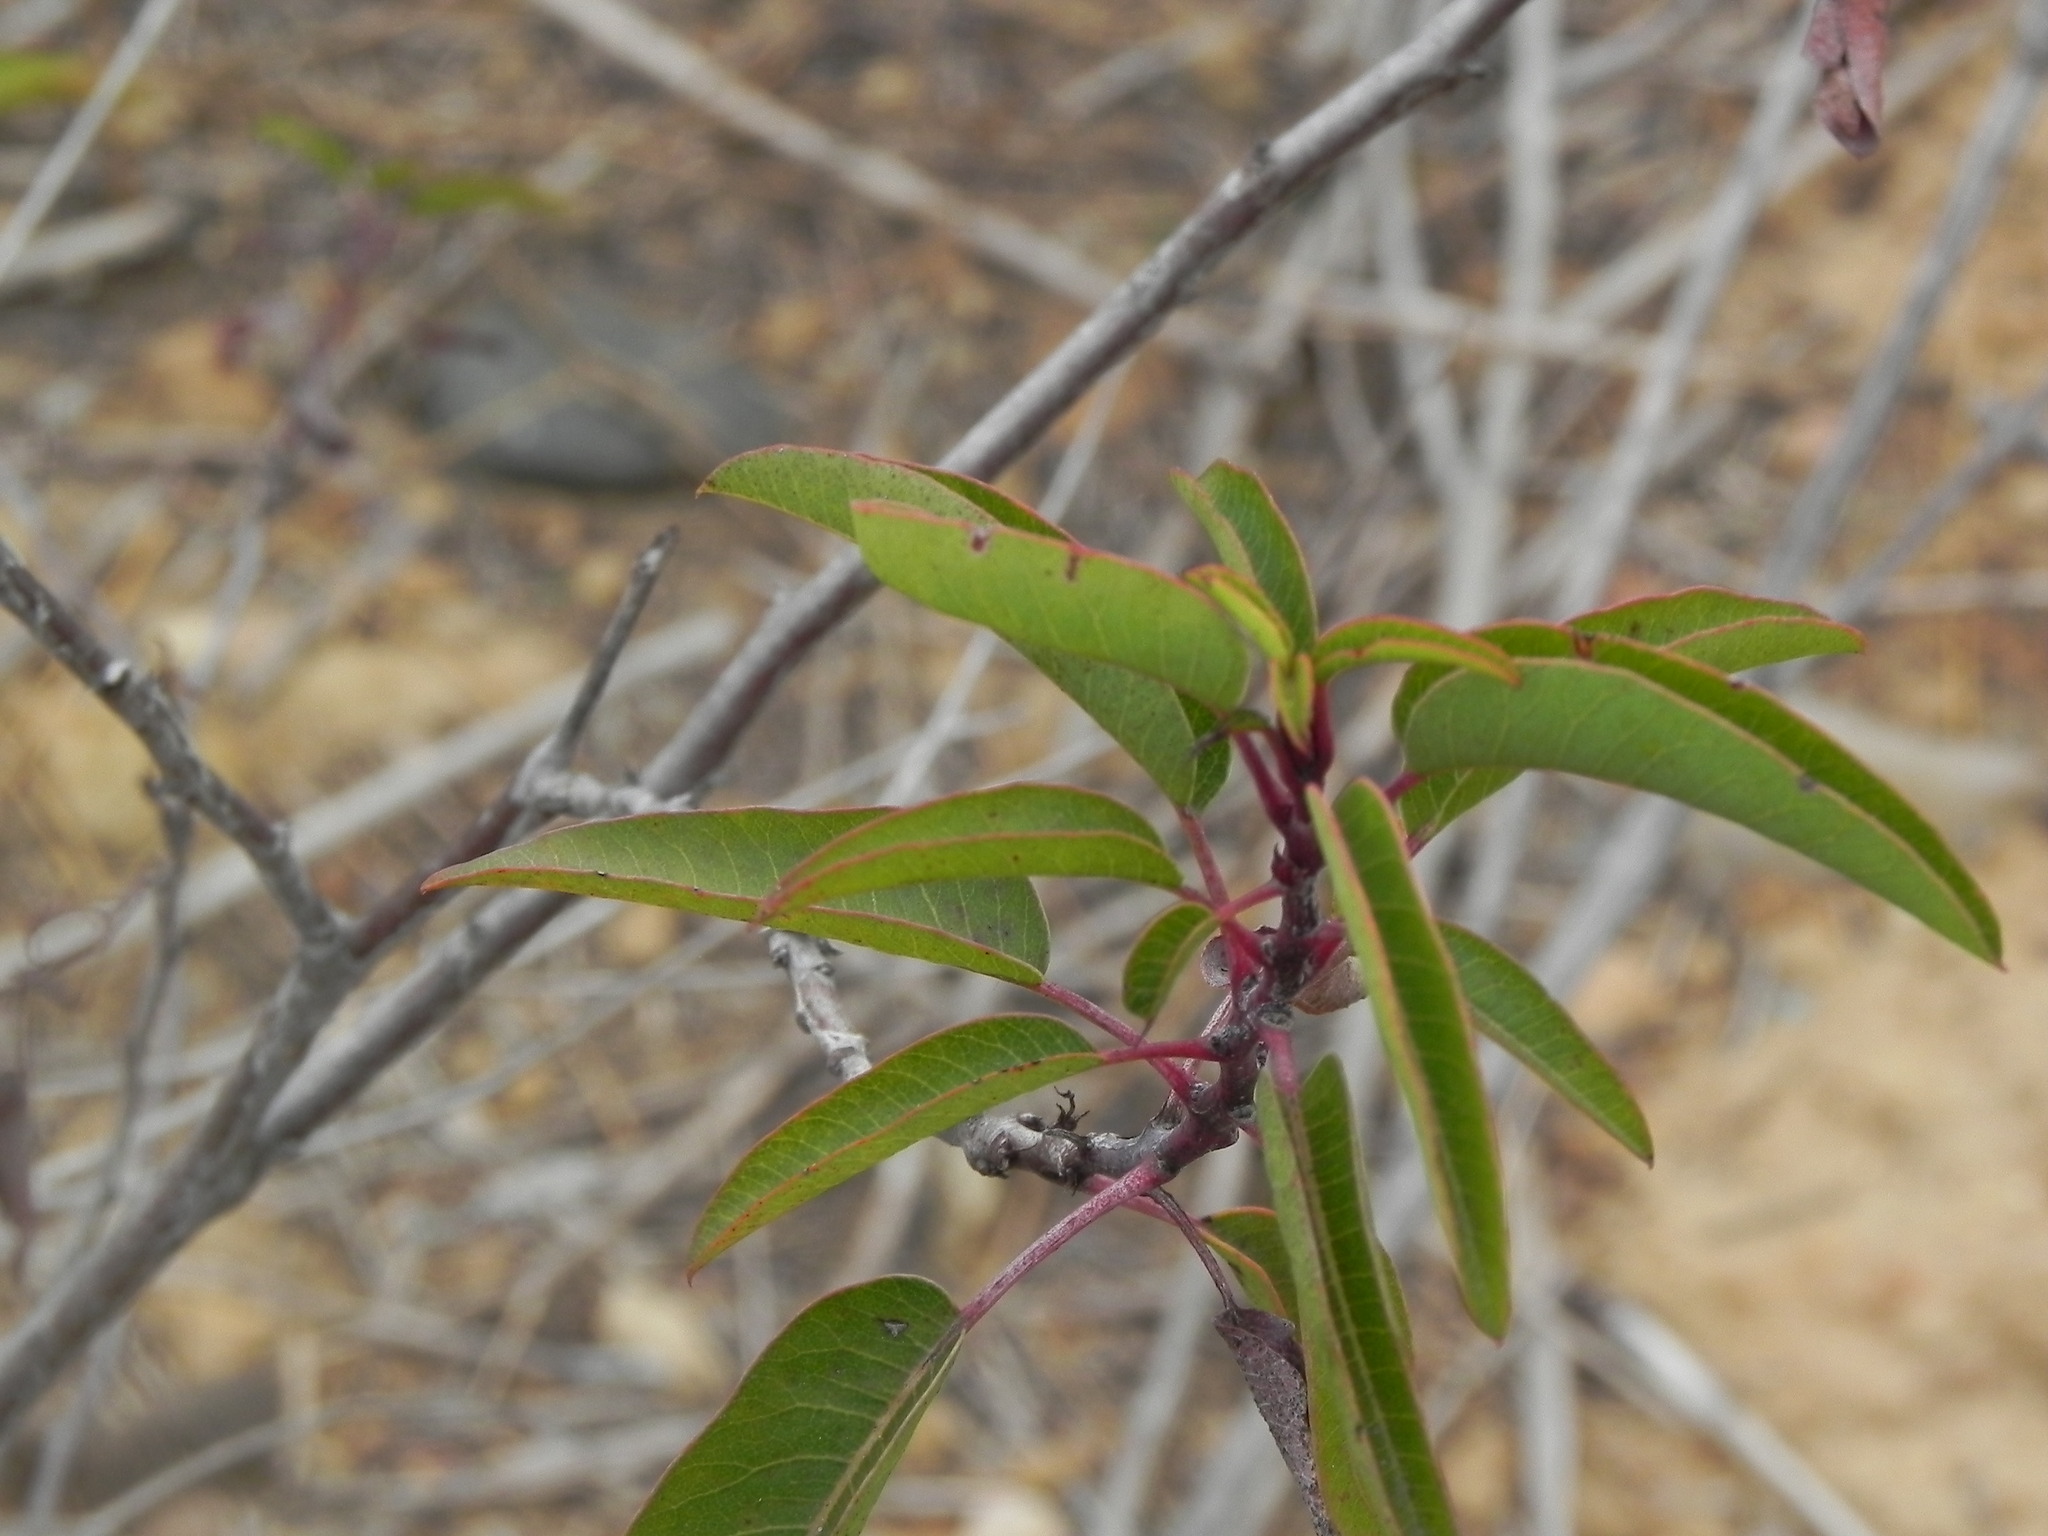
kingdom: Plantae
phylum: Tracheophyta
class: Magnoliopsida
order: Sapindales
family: Anacardiaceae
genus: Malosma
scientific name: Malosma laurina
